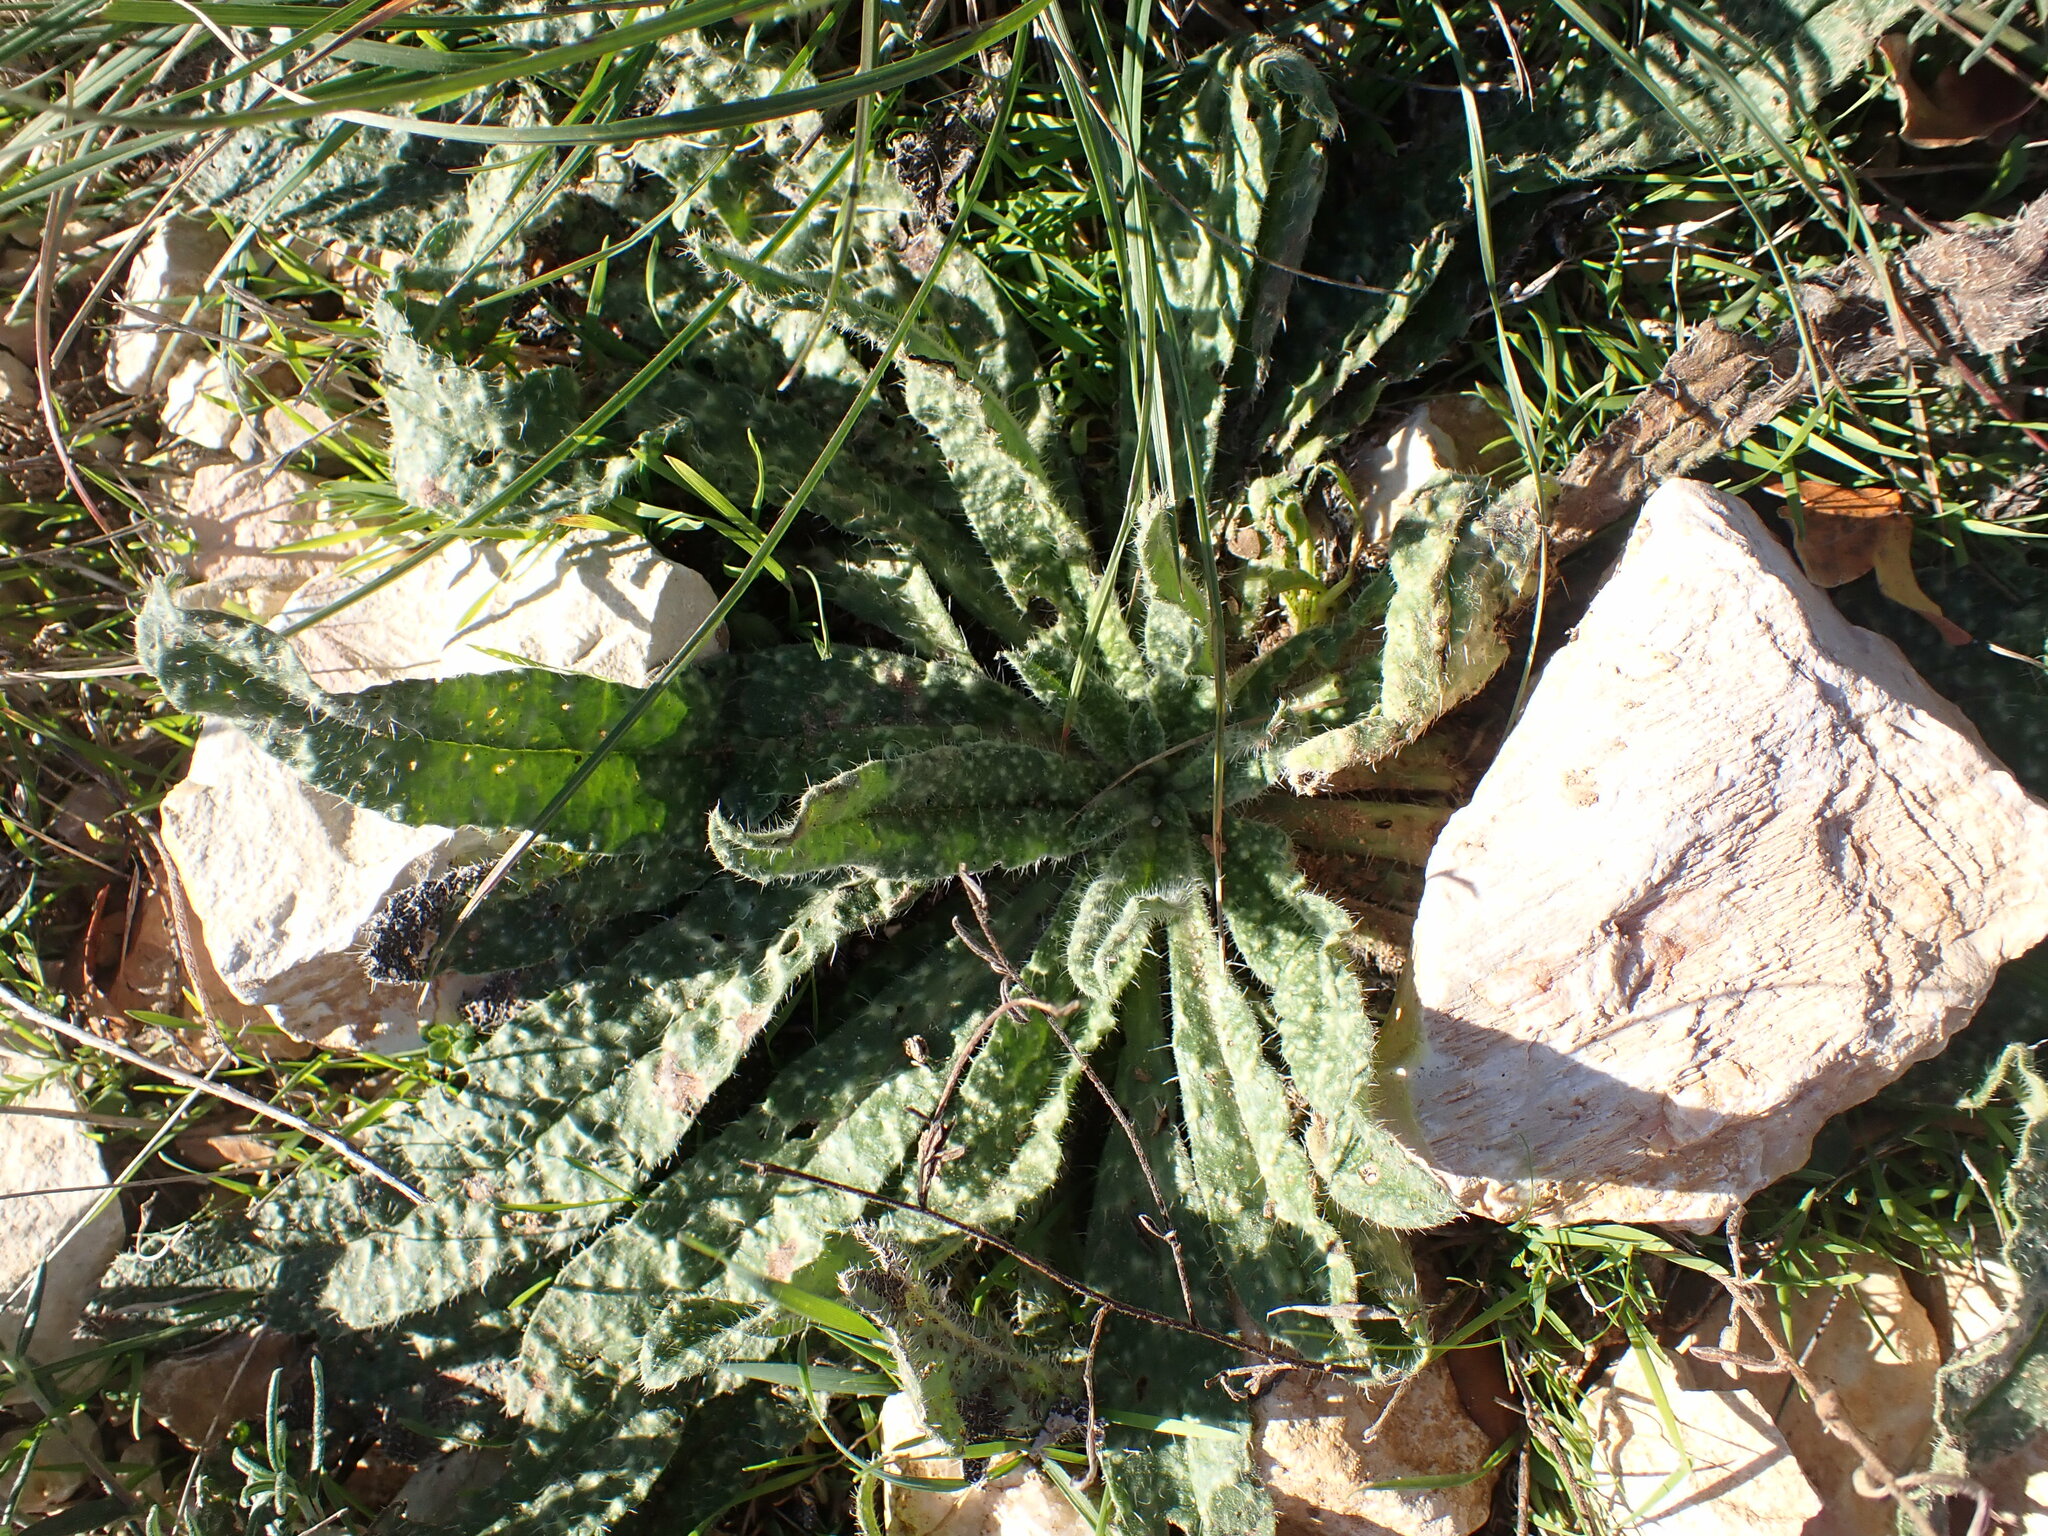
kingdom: Plantae
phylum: Tracheophyta
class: Magnoliopsida
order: Boraginales
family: Boraginaceae
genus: Echium
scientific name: Echium vulgare
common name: Common viper's bugloss
